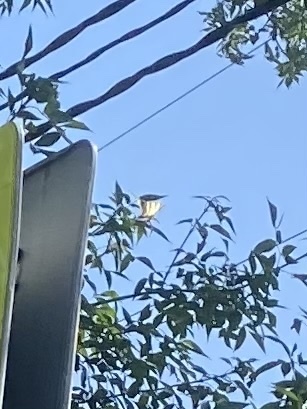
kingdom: Animalia
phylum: Arthropoda
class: Insecta
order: Lepidoptera
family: Papilionidae
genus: Iphiclides
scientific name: Iphiclides podalirius
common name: Scarce swallowtail
